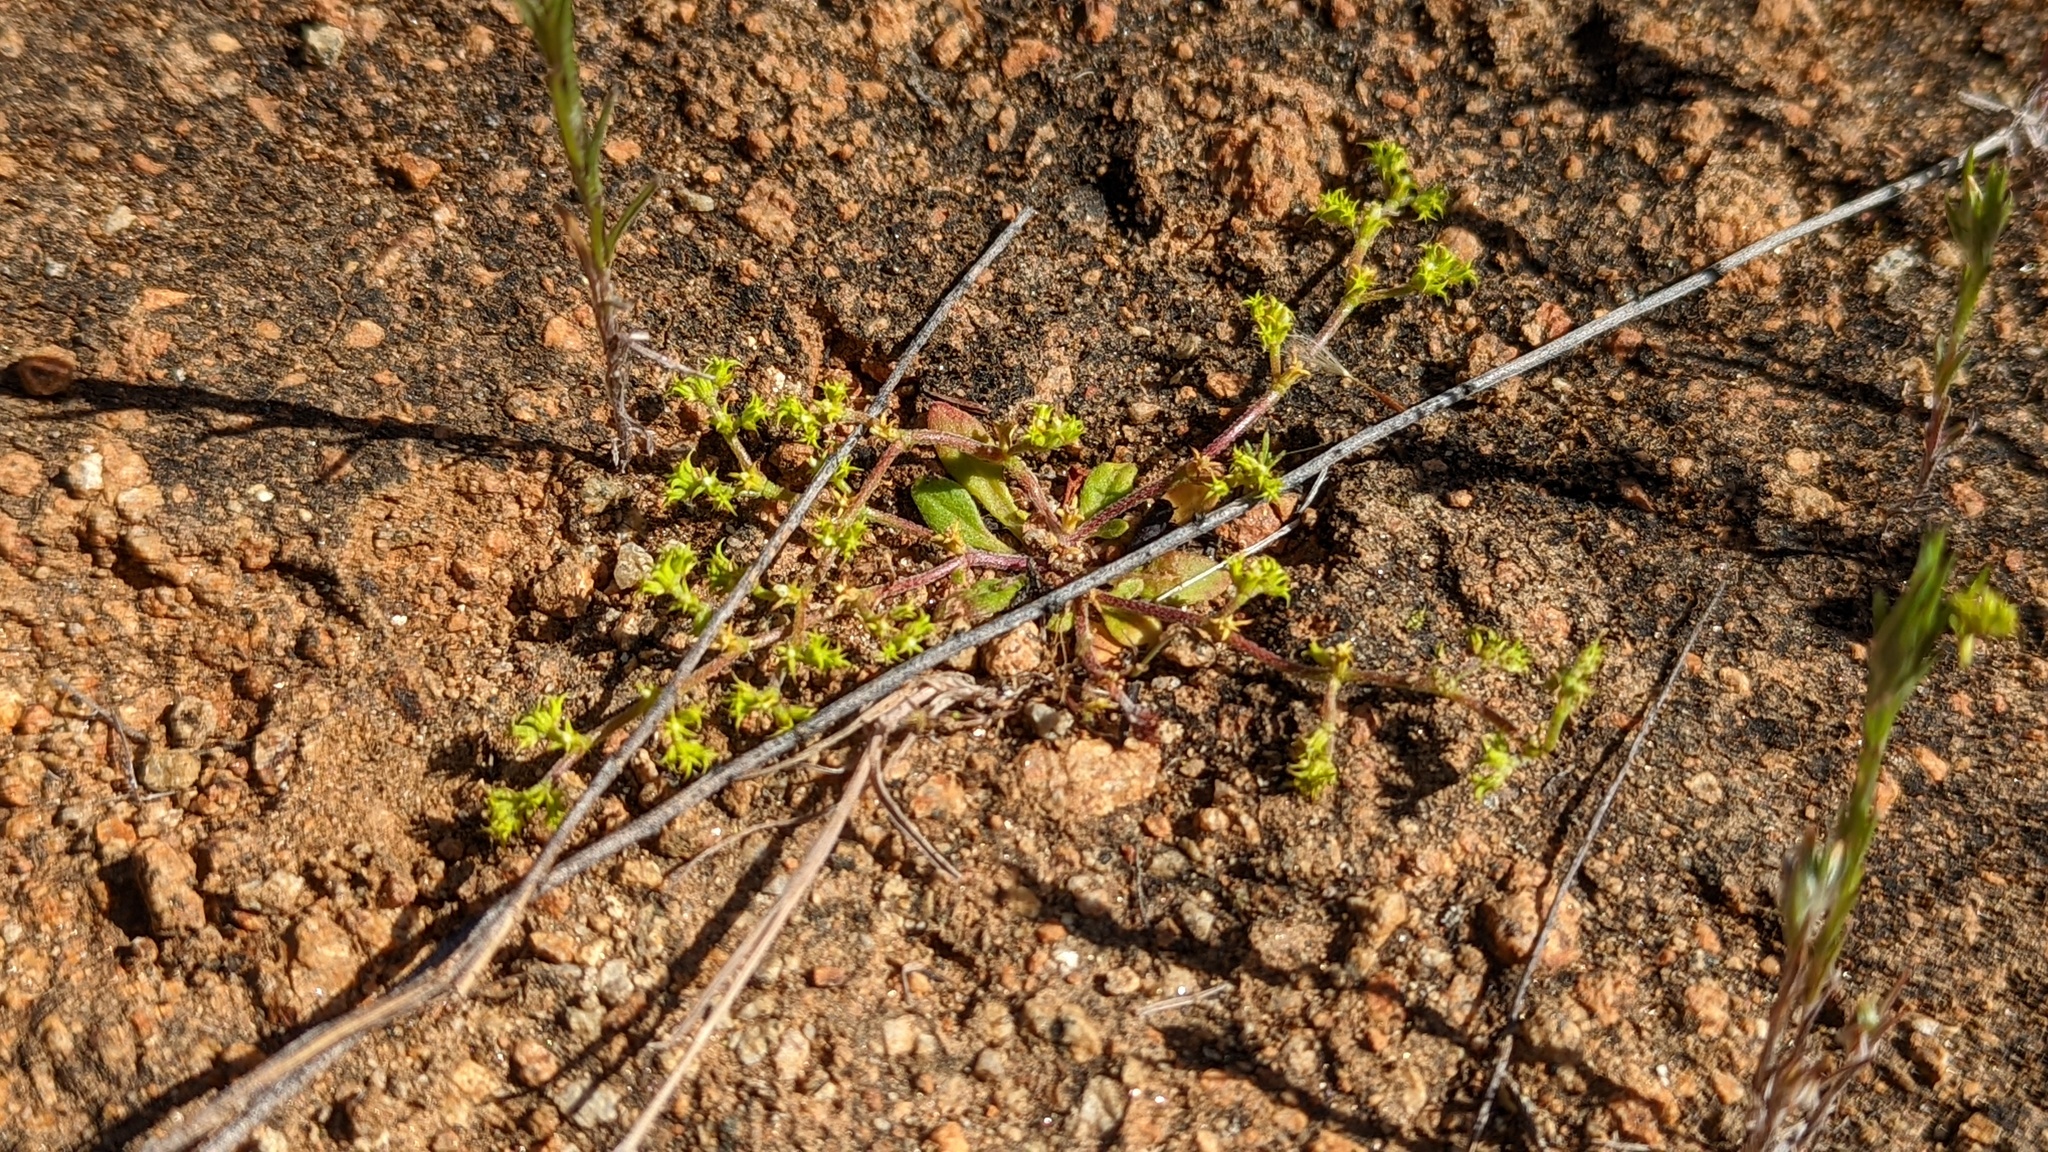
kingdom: Plantae
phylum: Tracheophyta
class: Magnoliopsida
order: Caryophyllales
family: Polygonaceae
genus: Chorizanthe
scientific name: Chorizanthe procumbens
